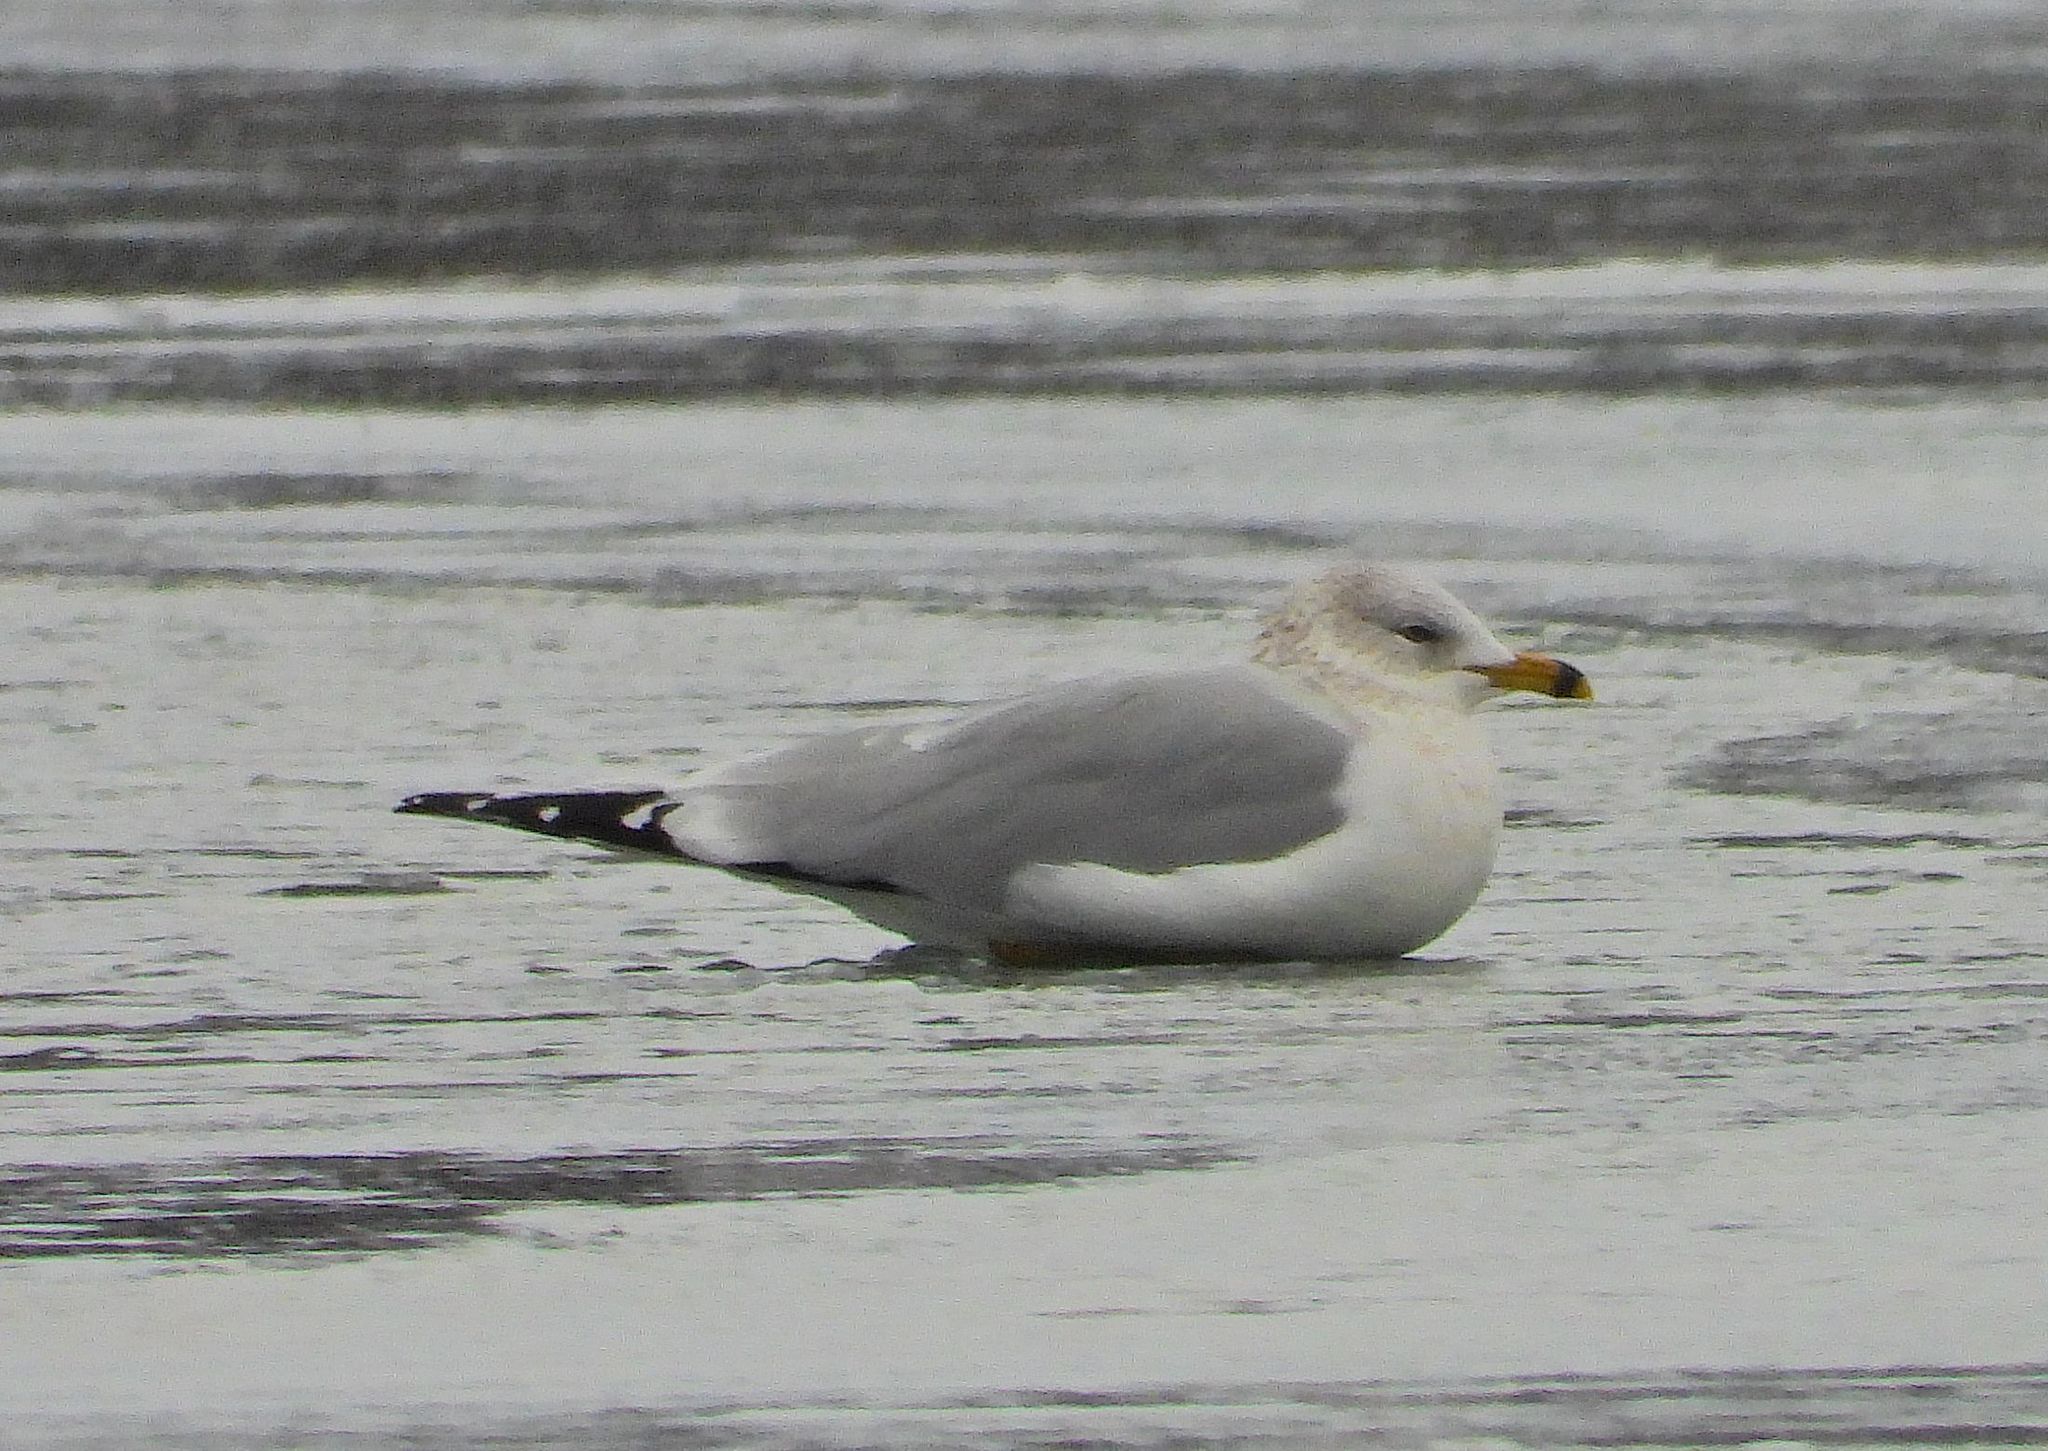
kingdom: Animalia
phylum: Chordata
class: Aves
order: Charadriiformes
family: Laridae
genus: Larus
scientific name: Larus delawarensis
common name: Ring-billed gull
